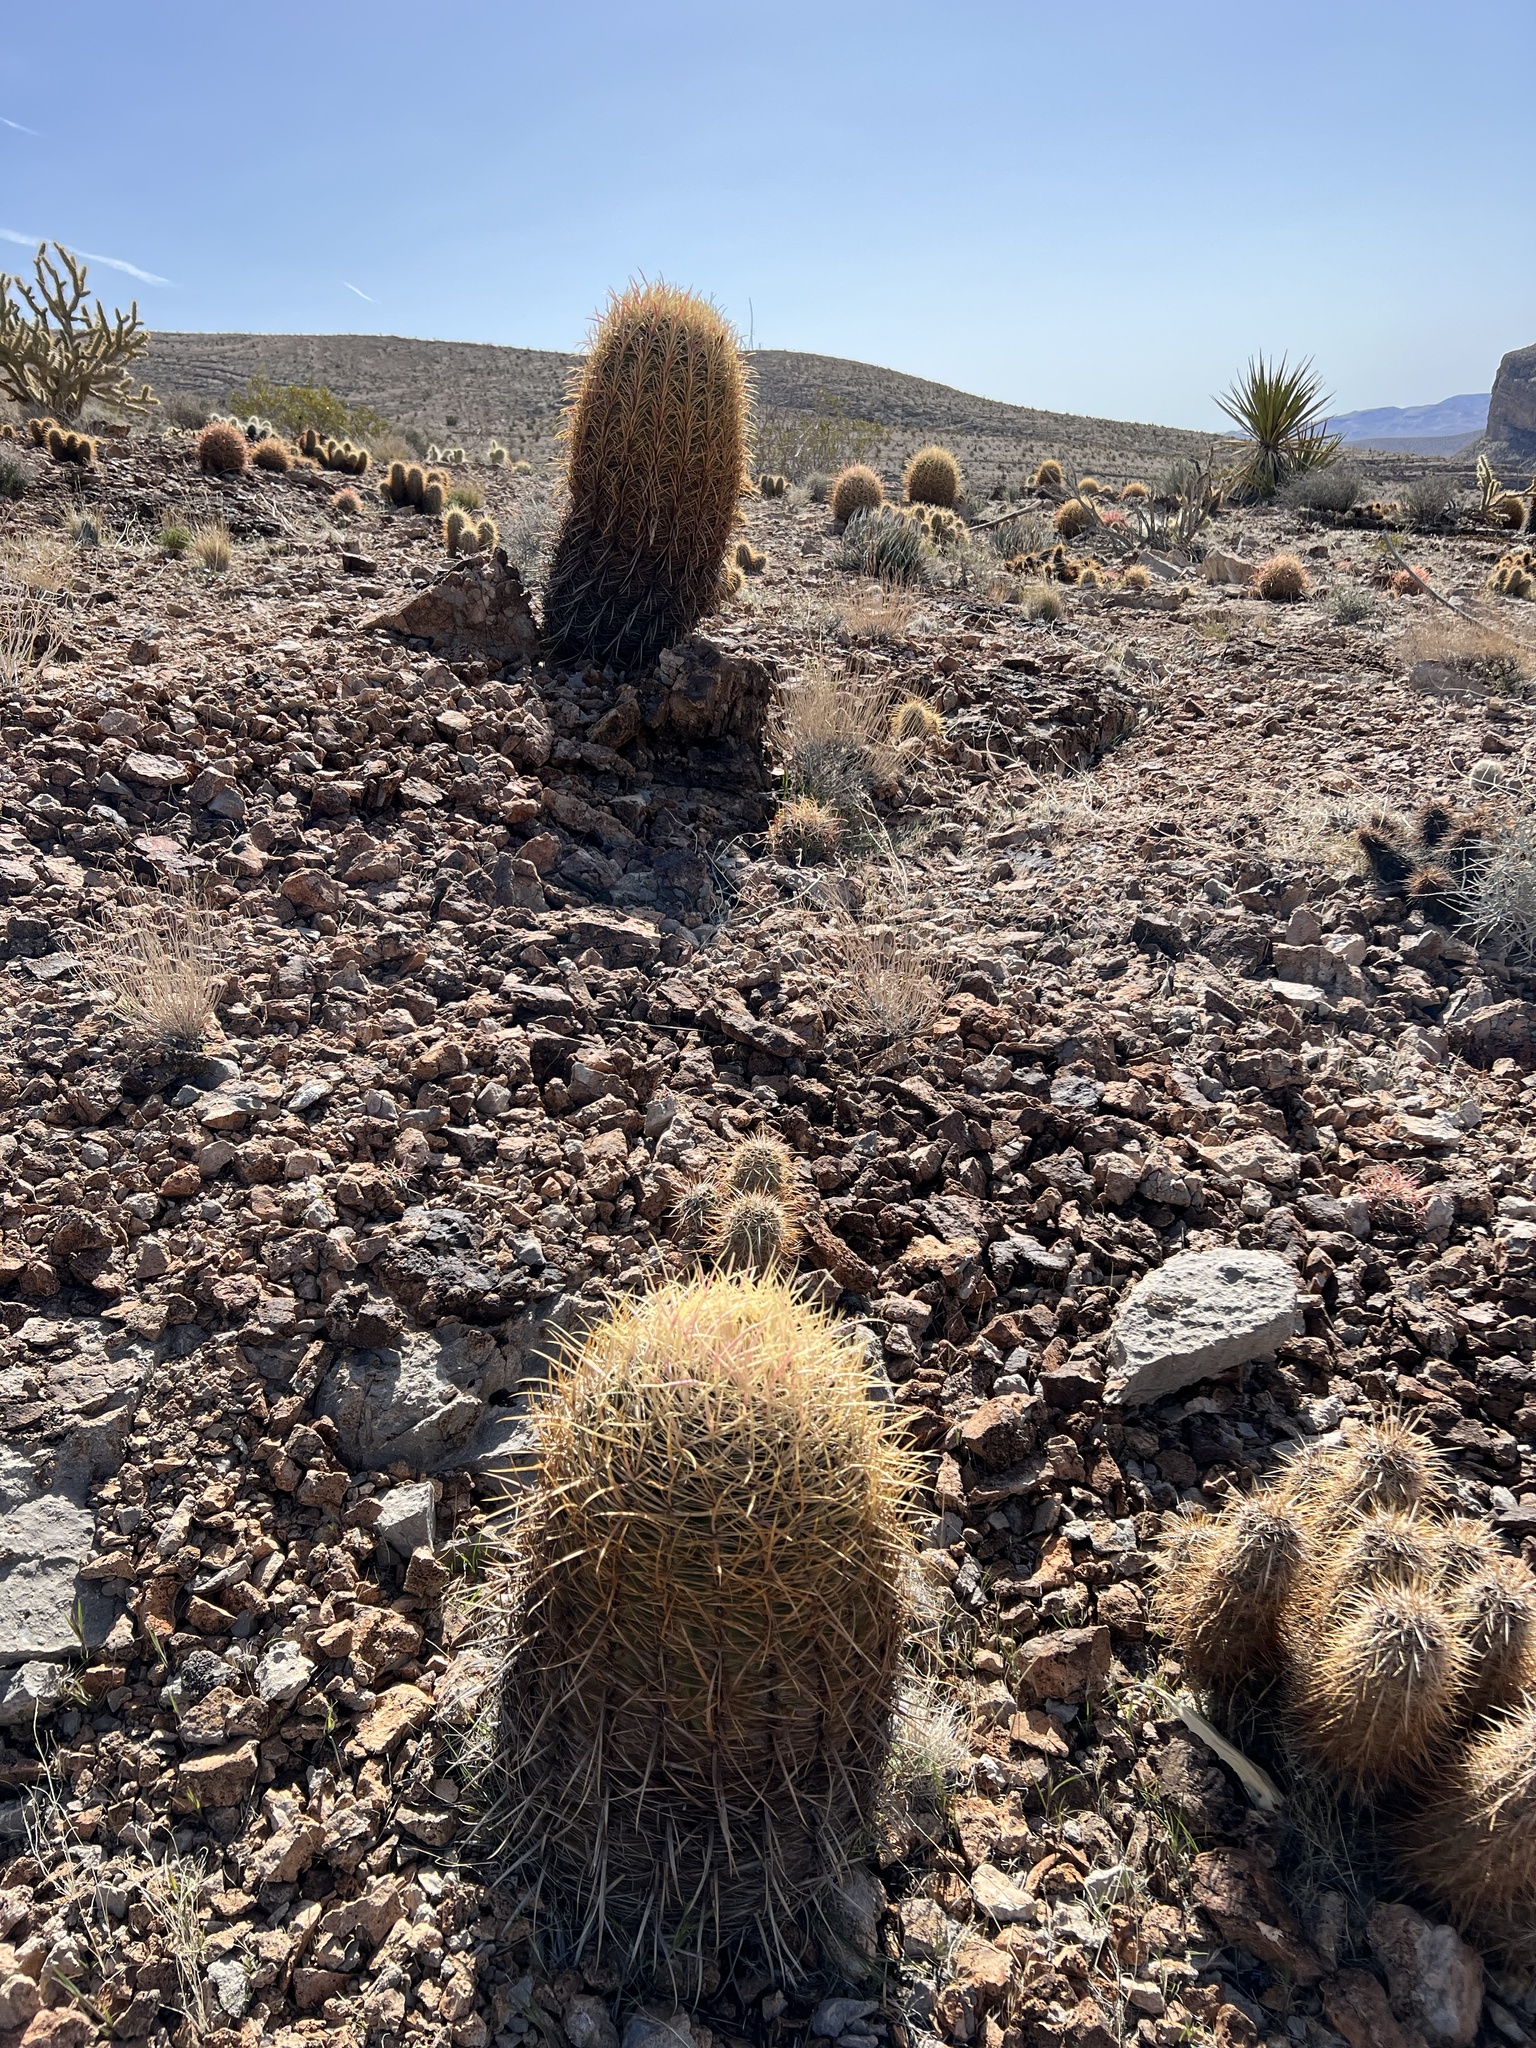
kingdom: Plantae
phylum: Tracheophyta
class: Magnoliopsida
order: Caryophyllales
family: Cactaceae
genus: Ferocactus
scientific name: Ferocactus cylindraceus
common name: California barrel cactus
